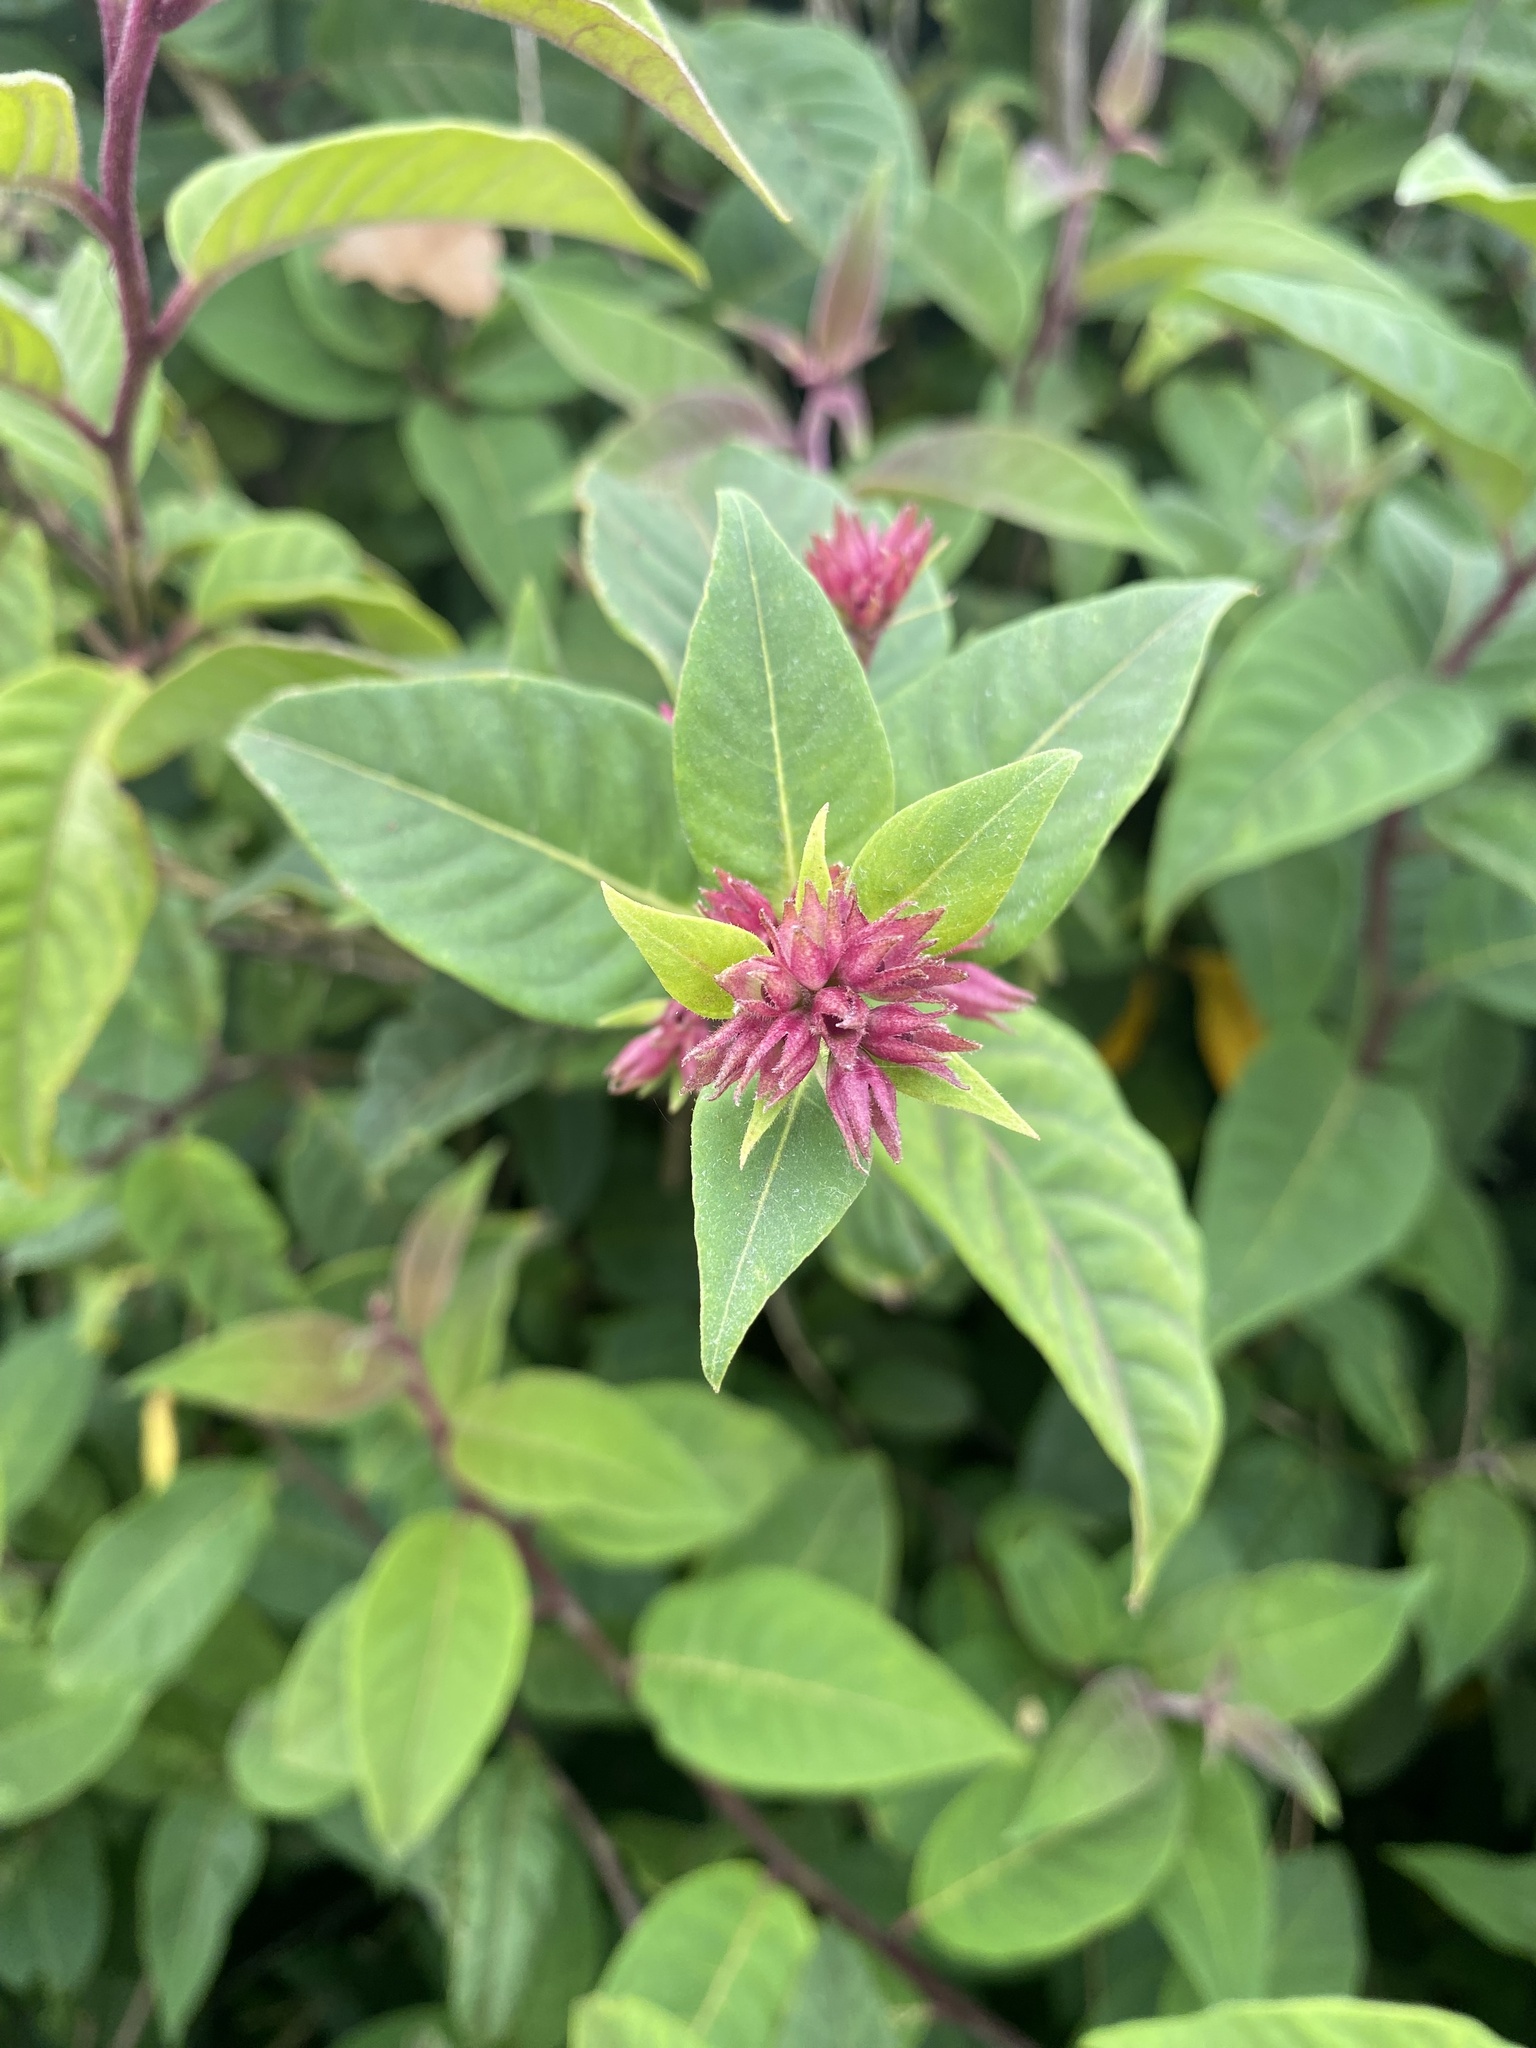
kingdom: Plantae
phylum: Tracheophyta
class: Magnoliopsida
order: Solanales
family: Solanaceae
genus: Cestrum
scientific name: Cestrum elegans
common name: Crimson cestrum
